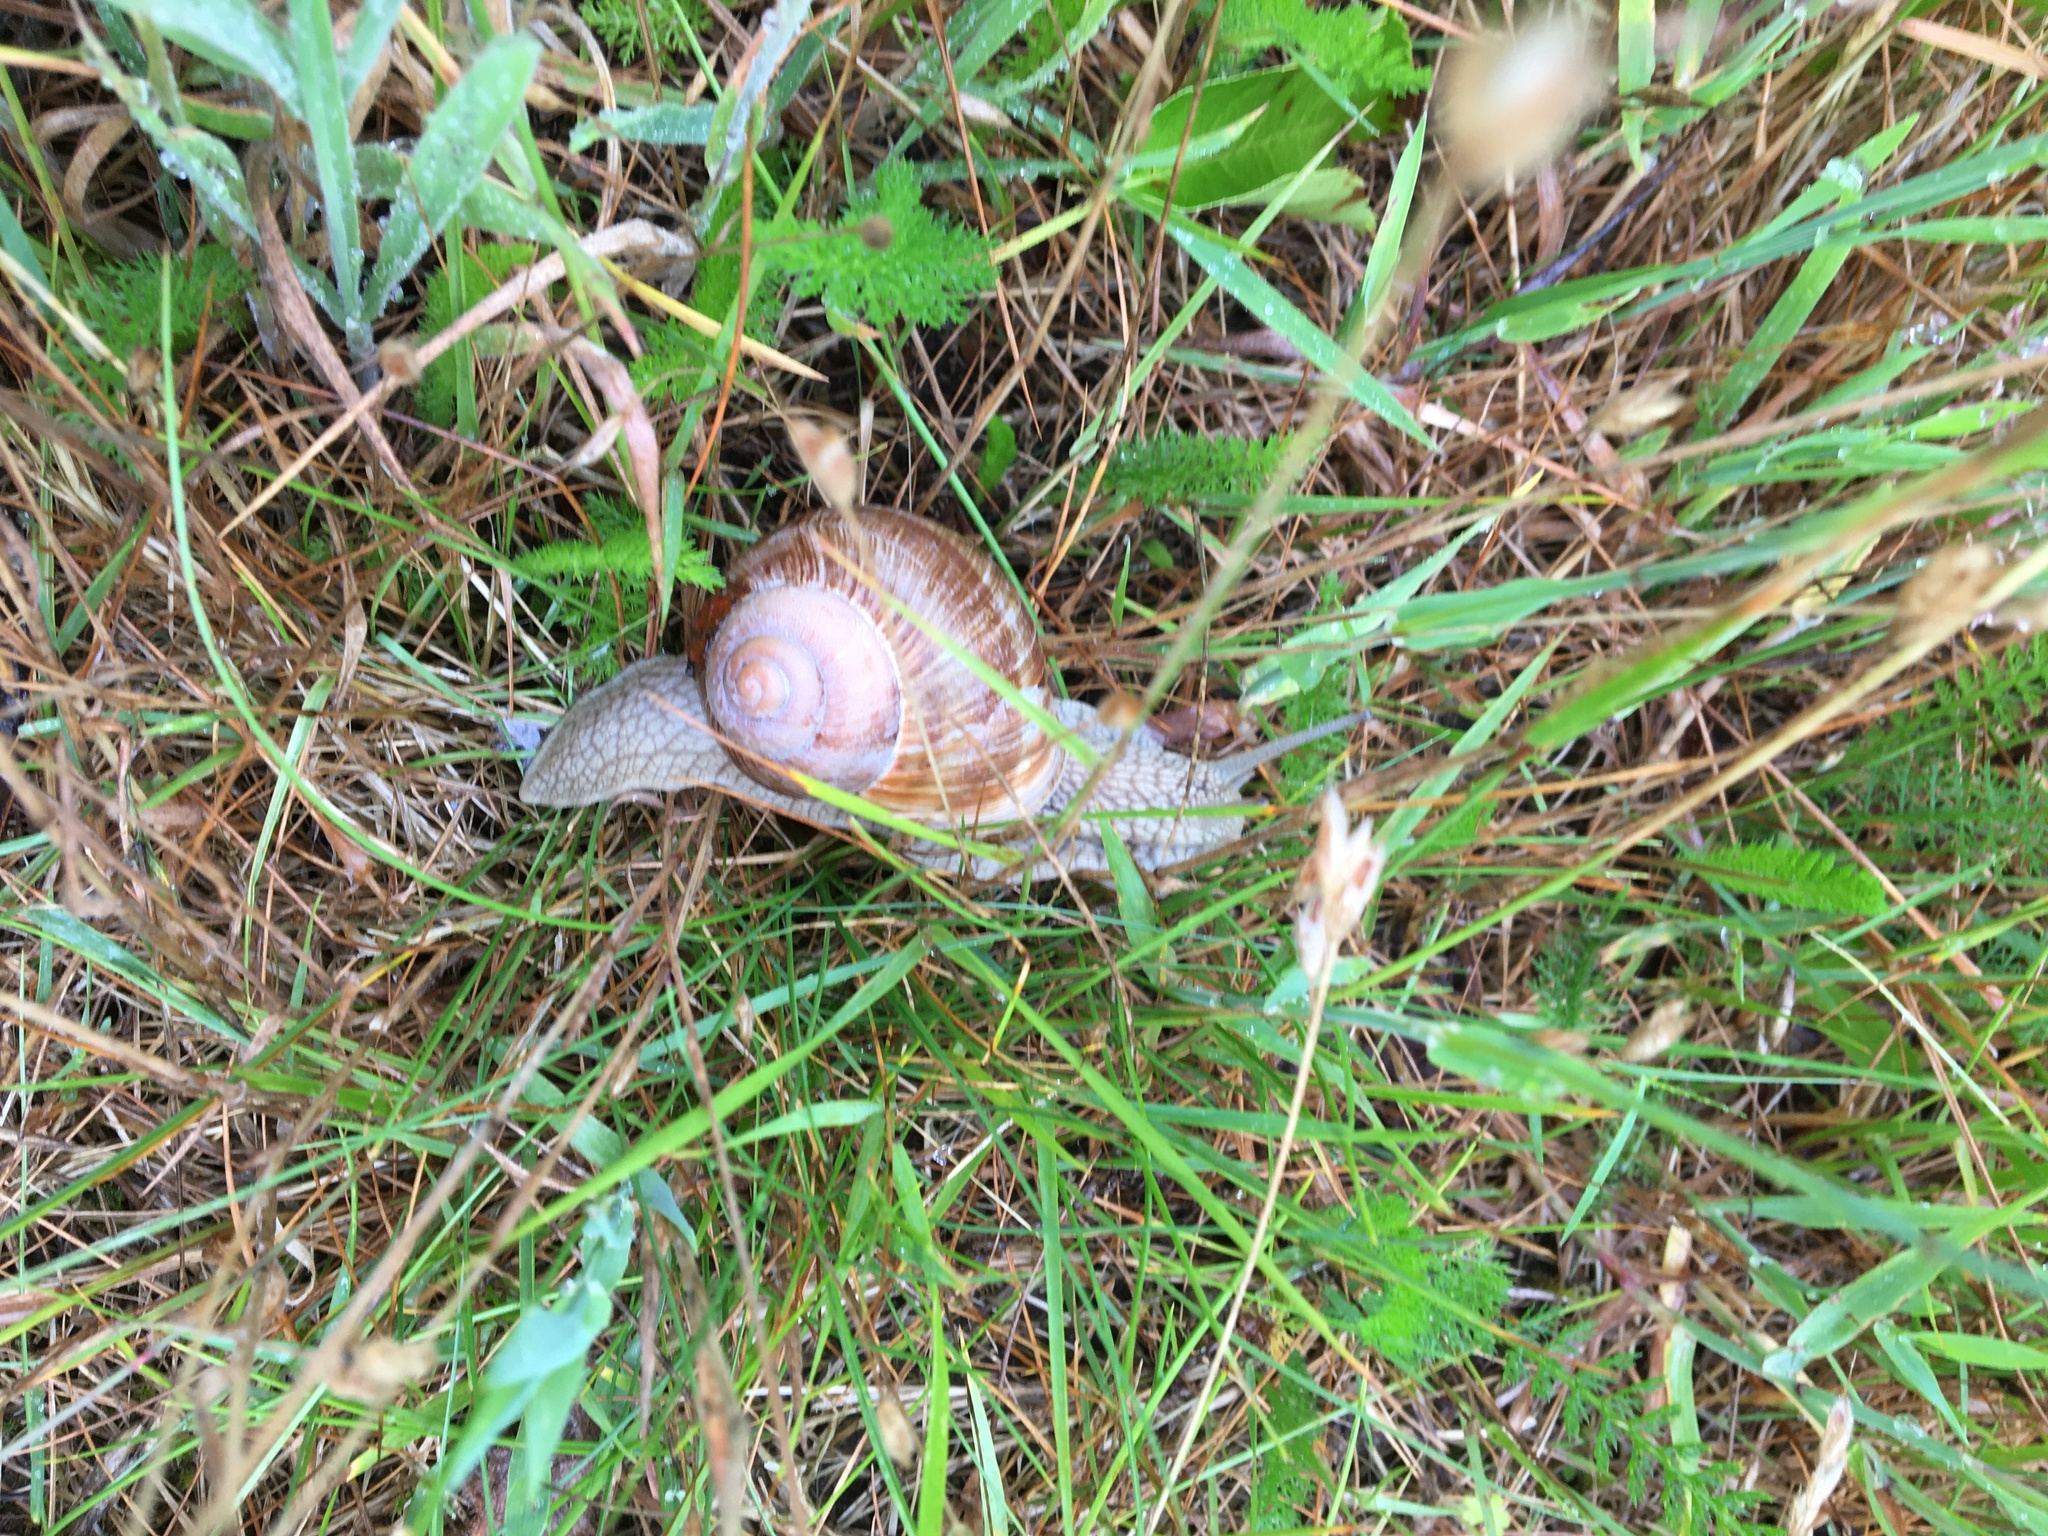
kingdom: Animalia
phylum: Mollusca
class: Gastropoda
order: Stylommatophora
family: Helicidae
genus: Helix
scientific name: Helix pomatia
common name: Roman snail
